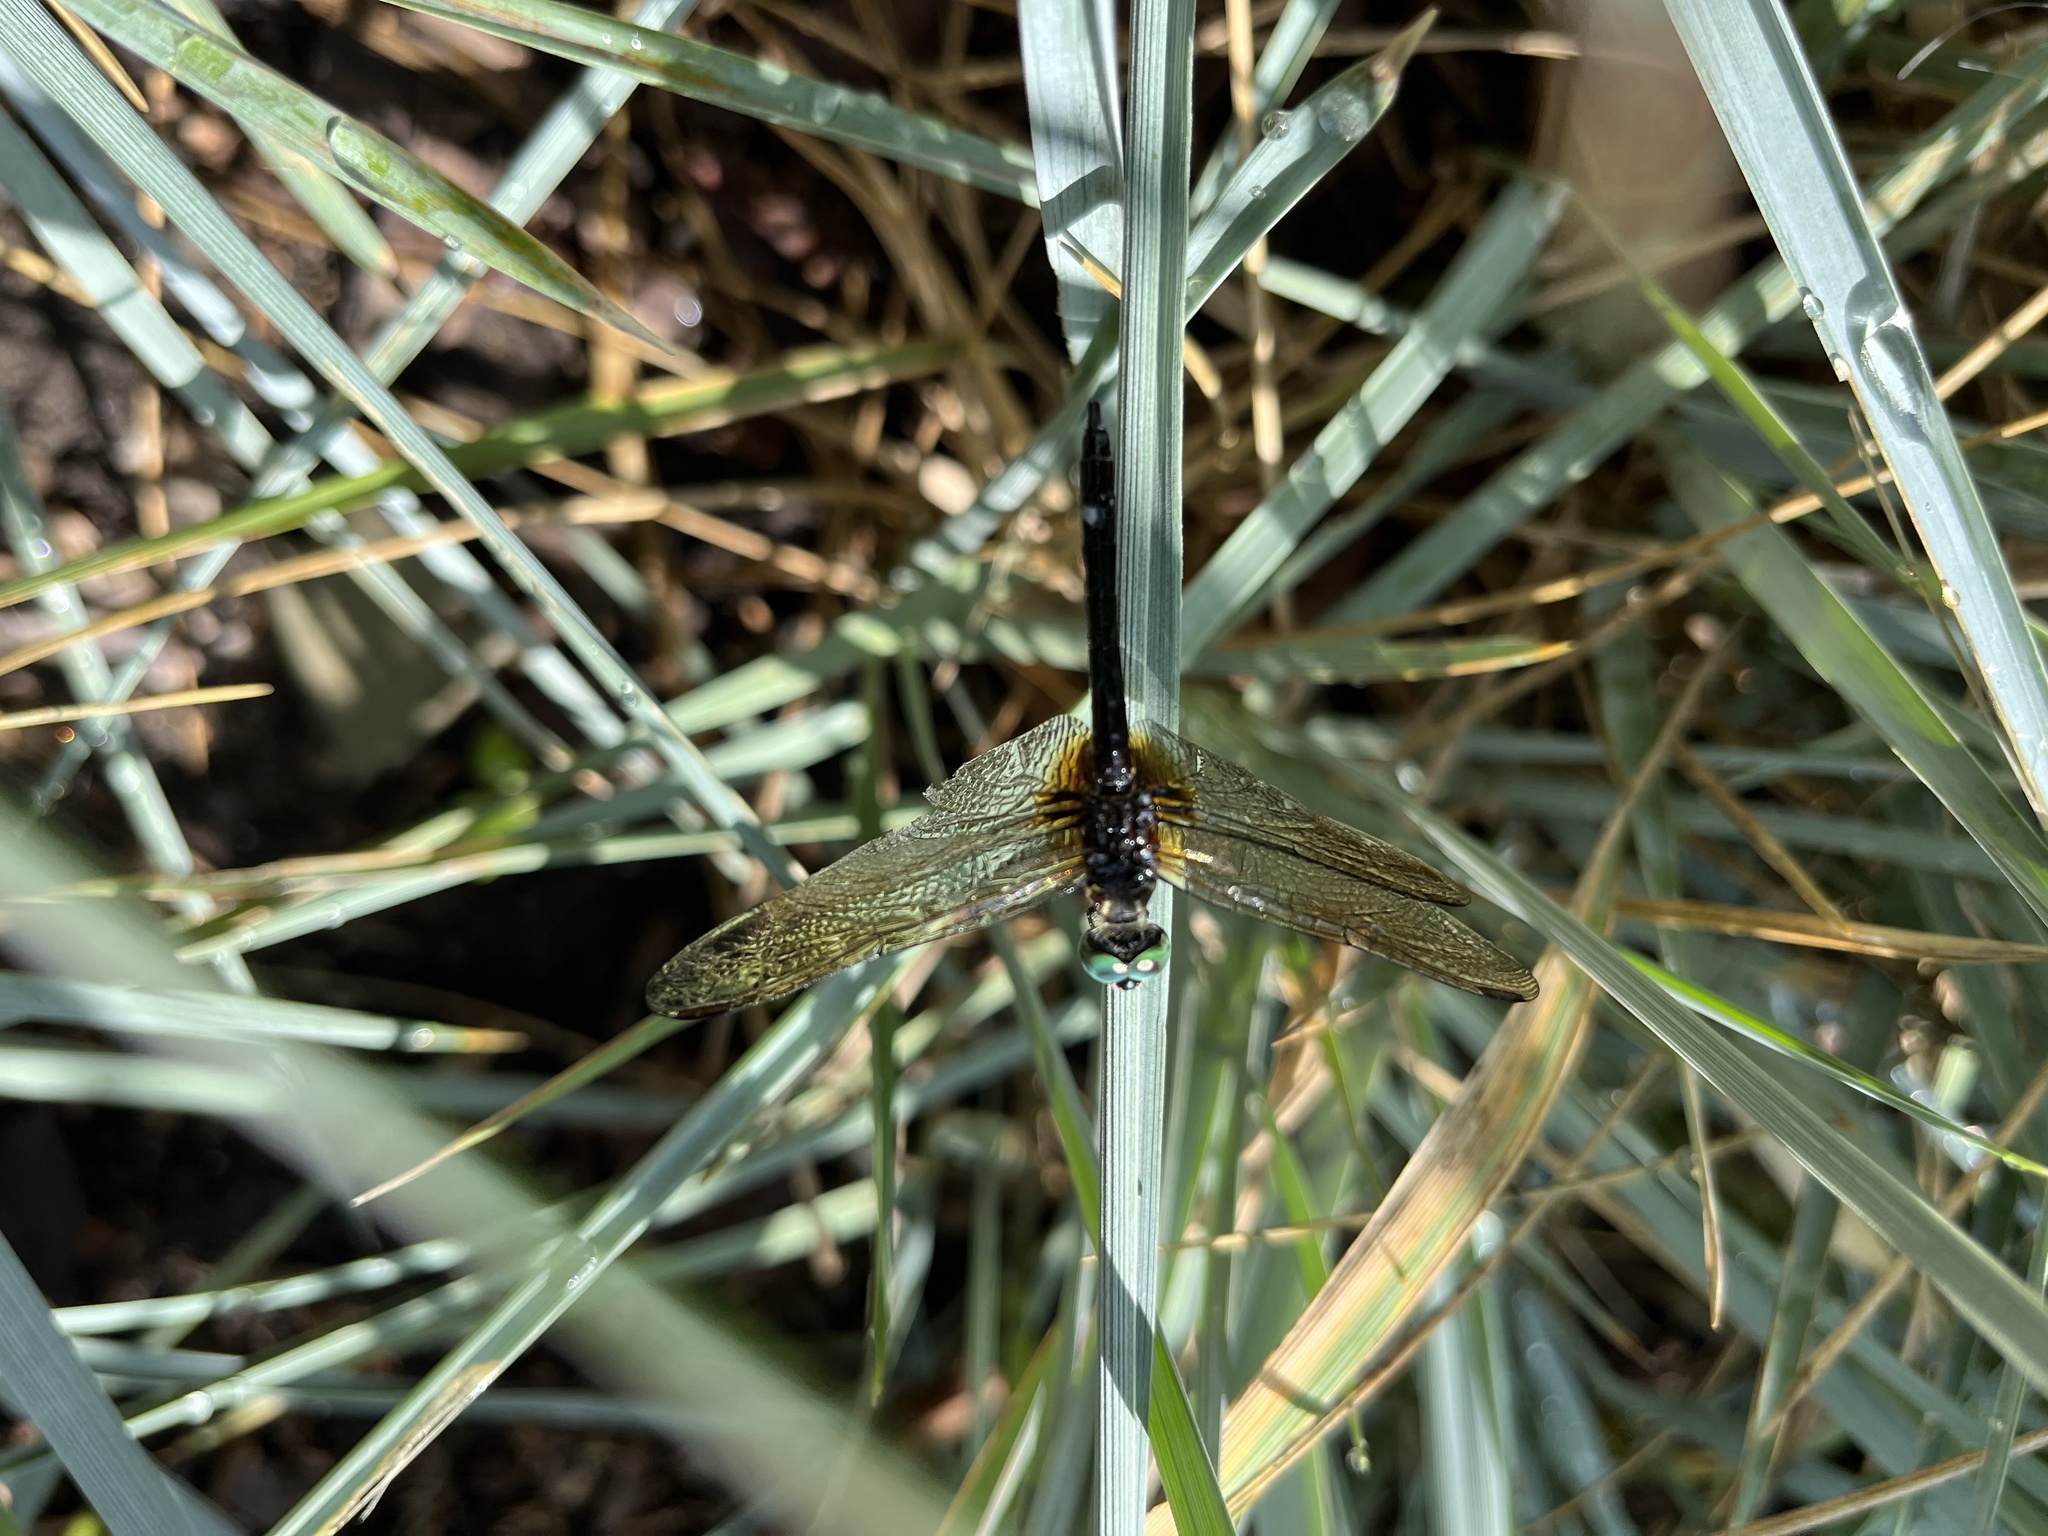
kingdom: Animalia
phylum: Arthropoda
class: Insecta
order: Odonata
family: Libellulidae
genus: Pachydiplax
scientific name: Pachydiplax longipennis
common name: Blue dasher
